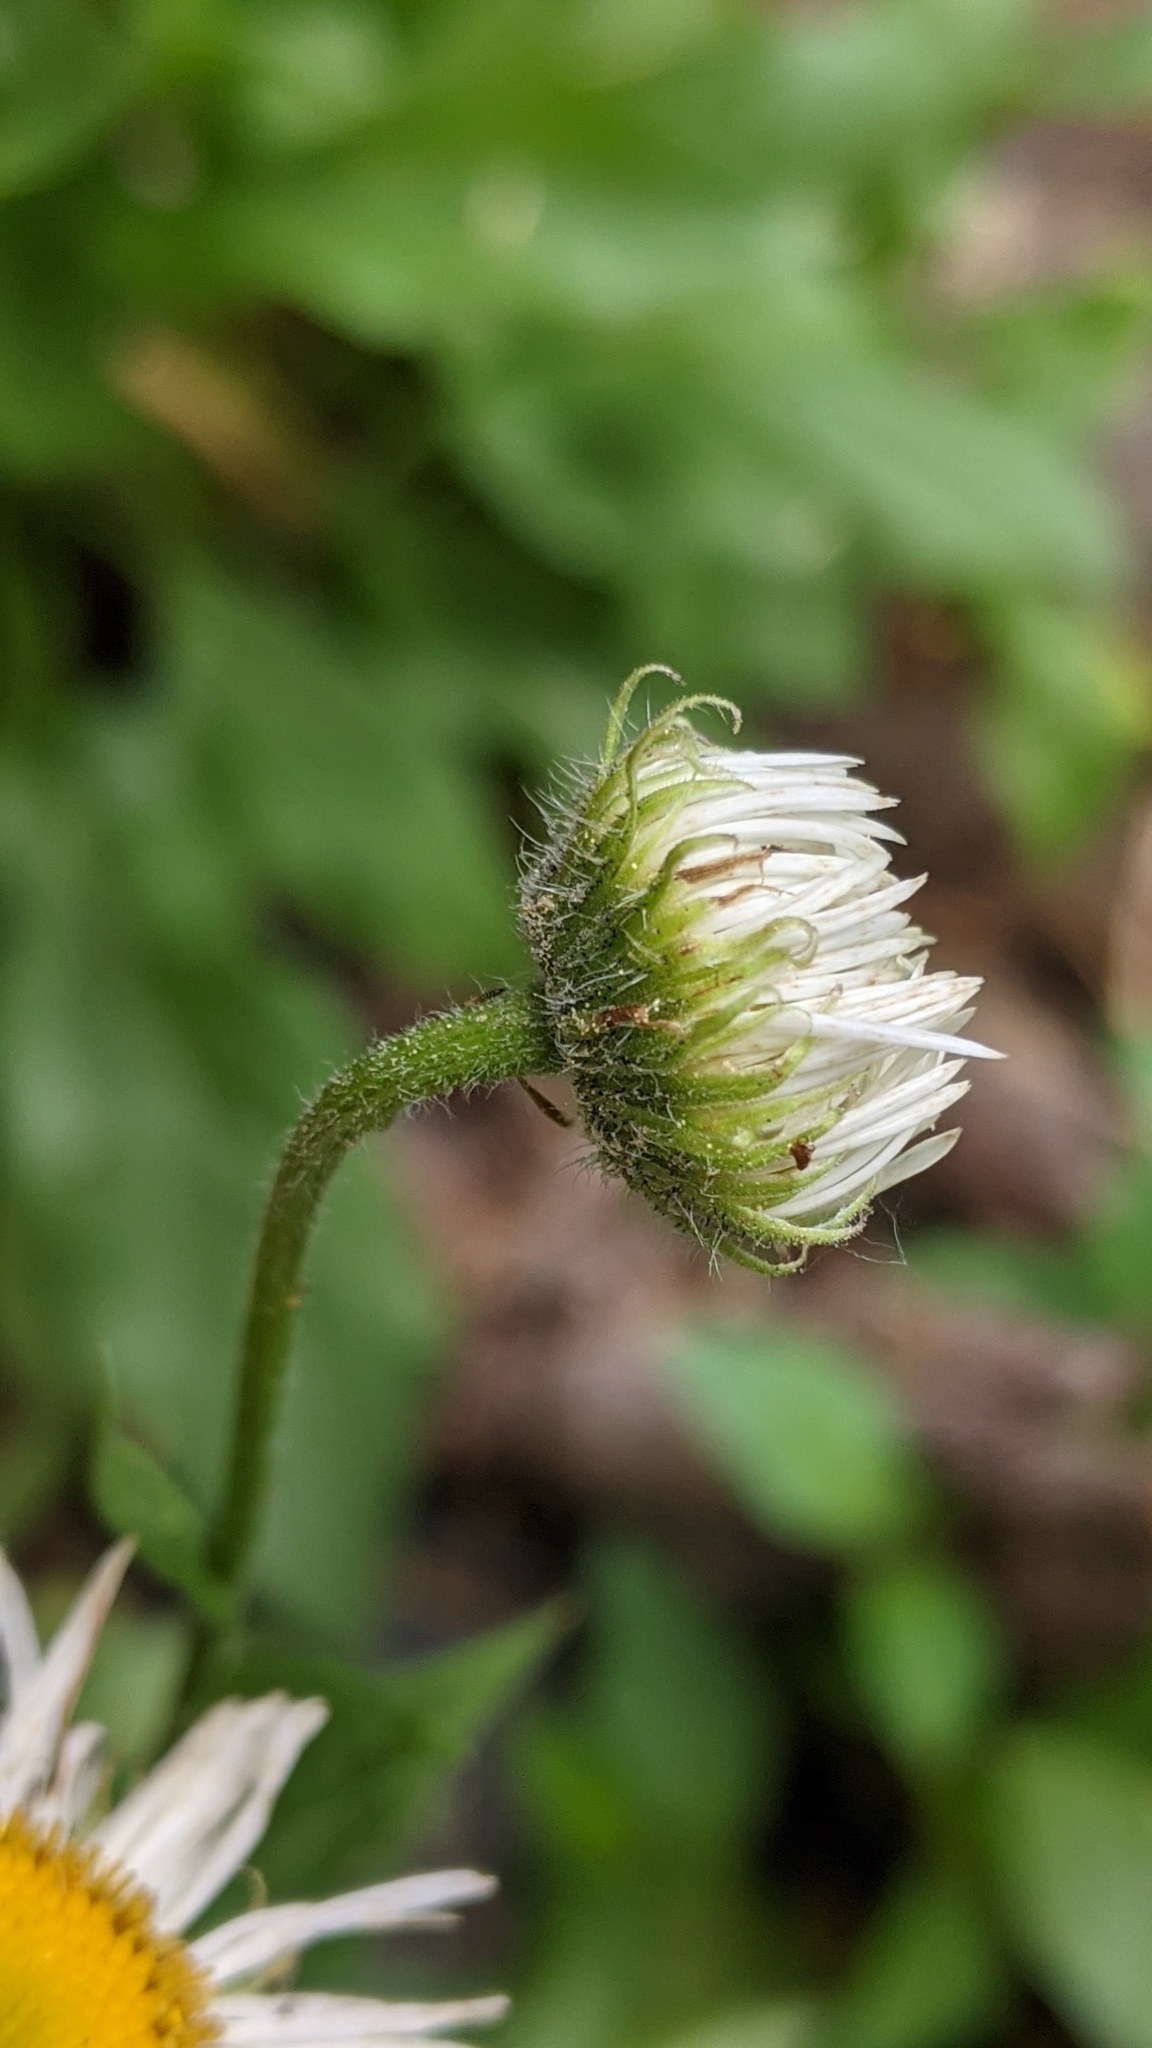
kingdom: Plantae
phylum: Tracheophyta
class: Magnoliopsida
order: Asterales
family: Asteraceae
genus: Erigeron
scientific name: Erigeron coulteri
